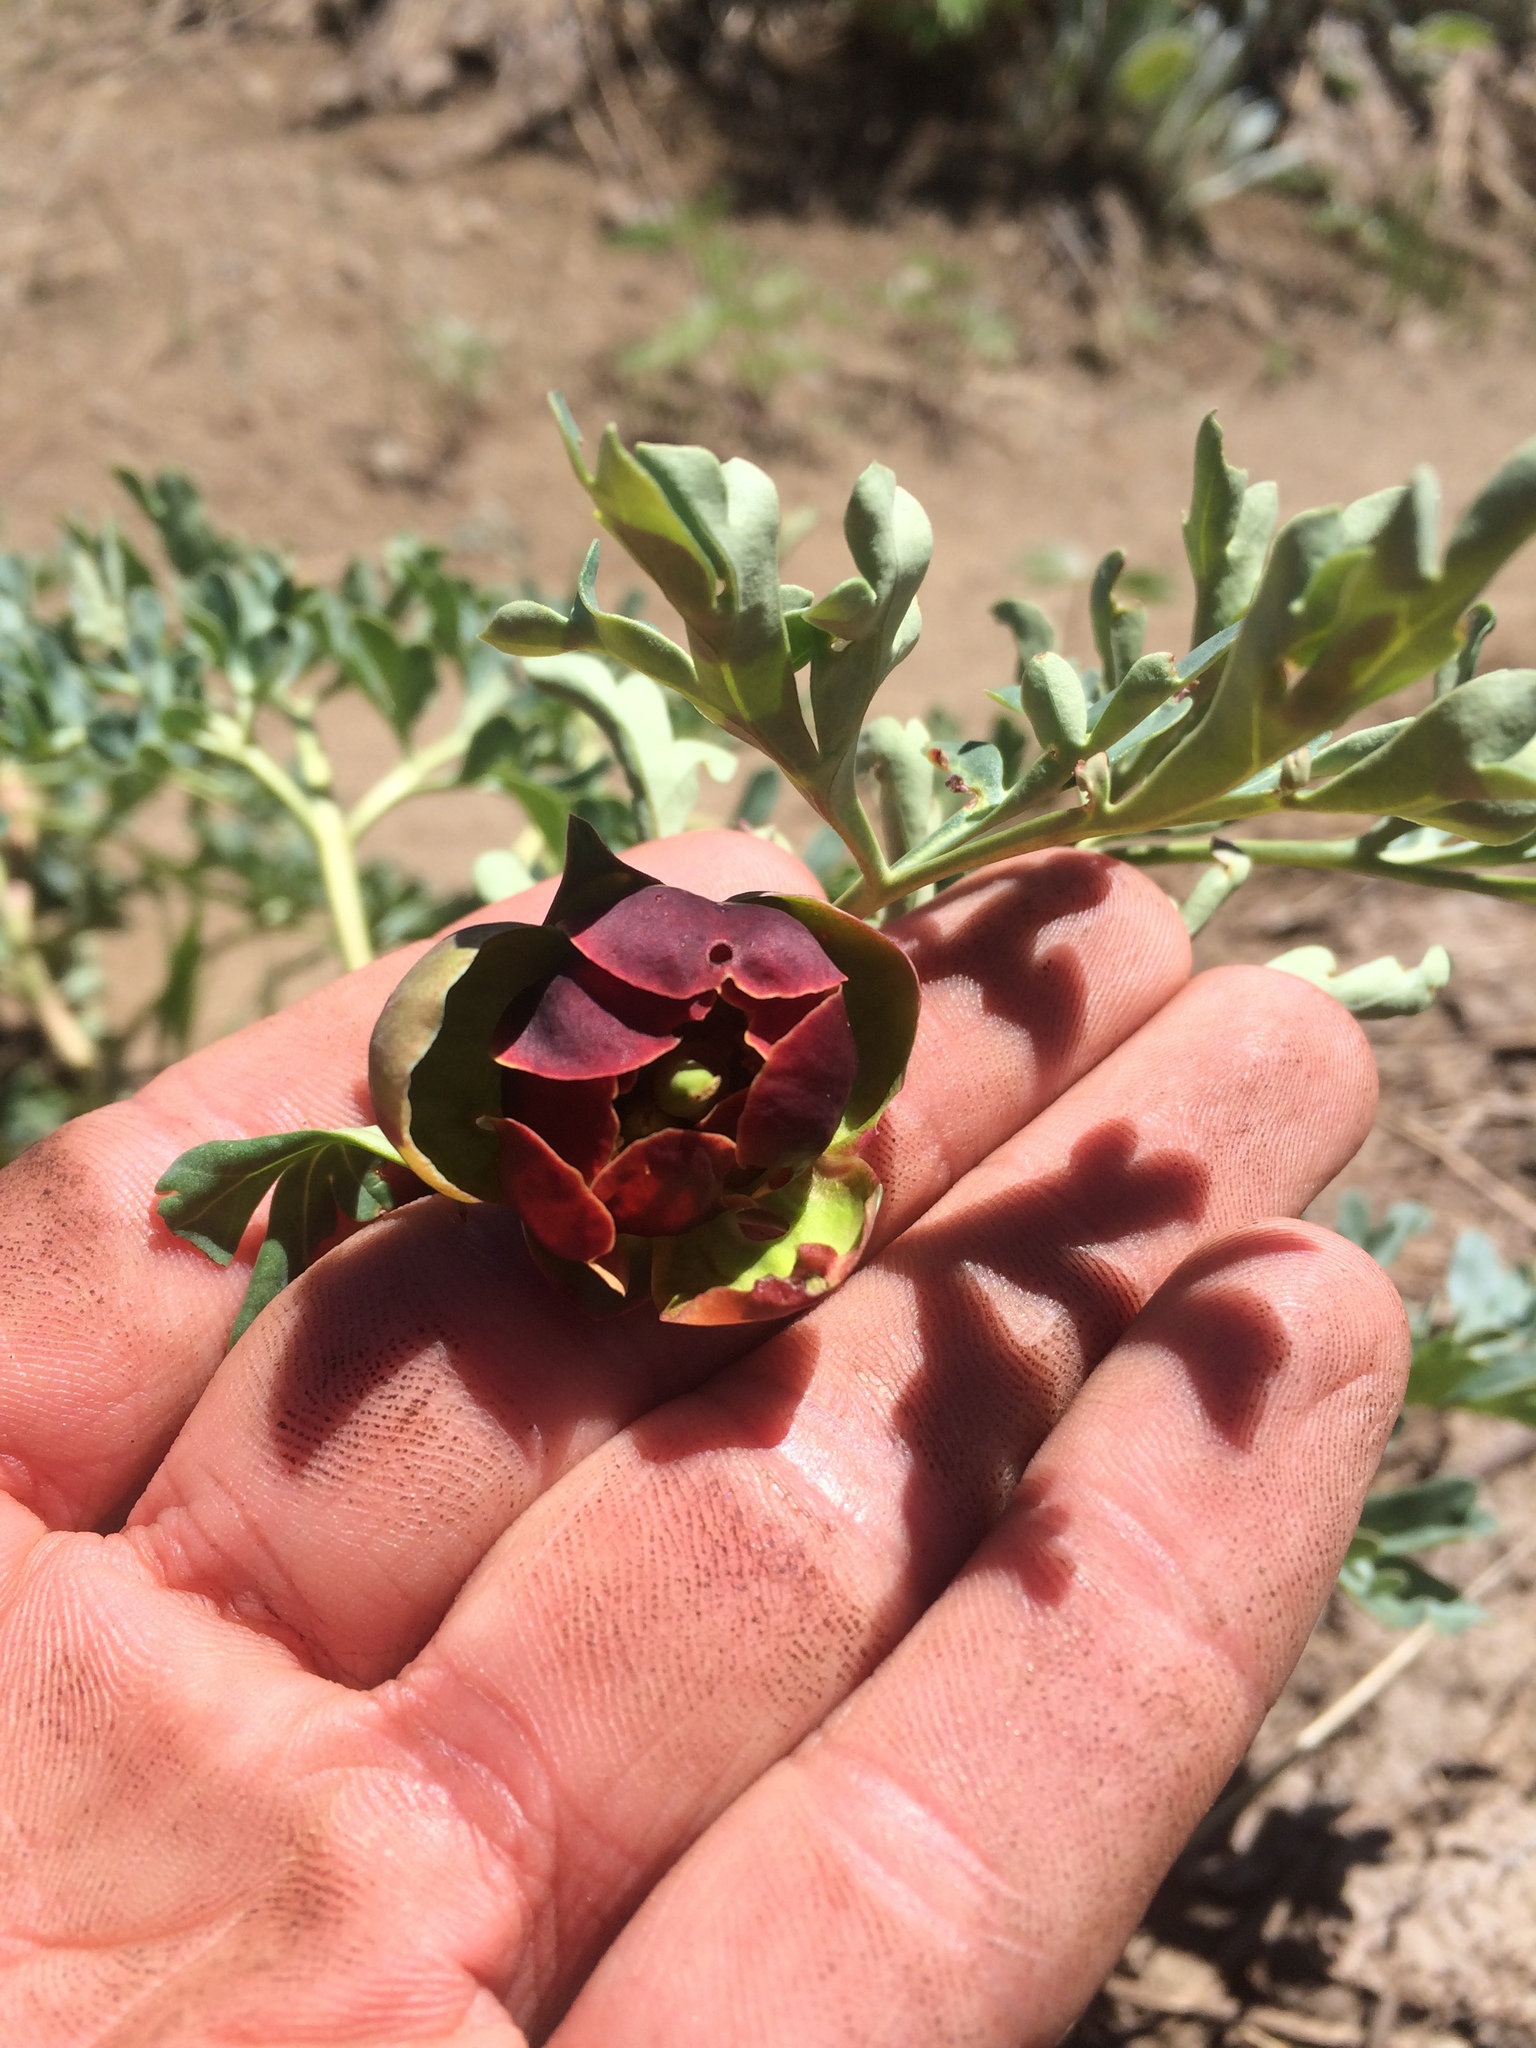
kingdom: Plantae
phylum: Tracheophyta
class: Magnoliopsida
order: Saxifragales
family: Paeoniaceae
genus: Paeonia
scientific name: Paeonia brownii
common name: Brown's peony
